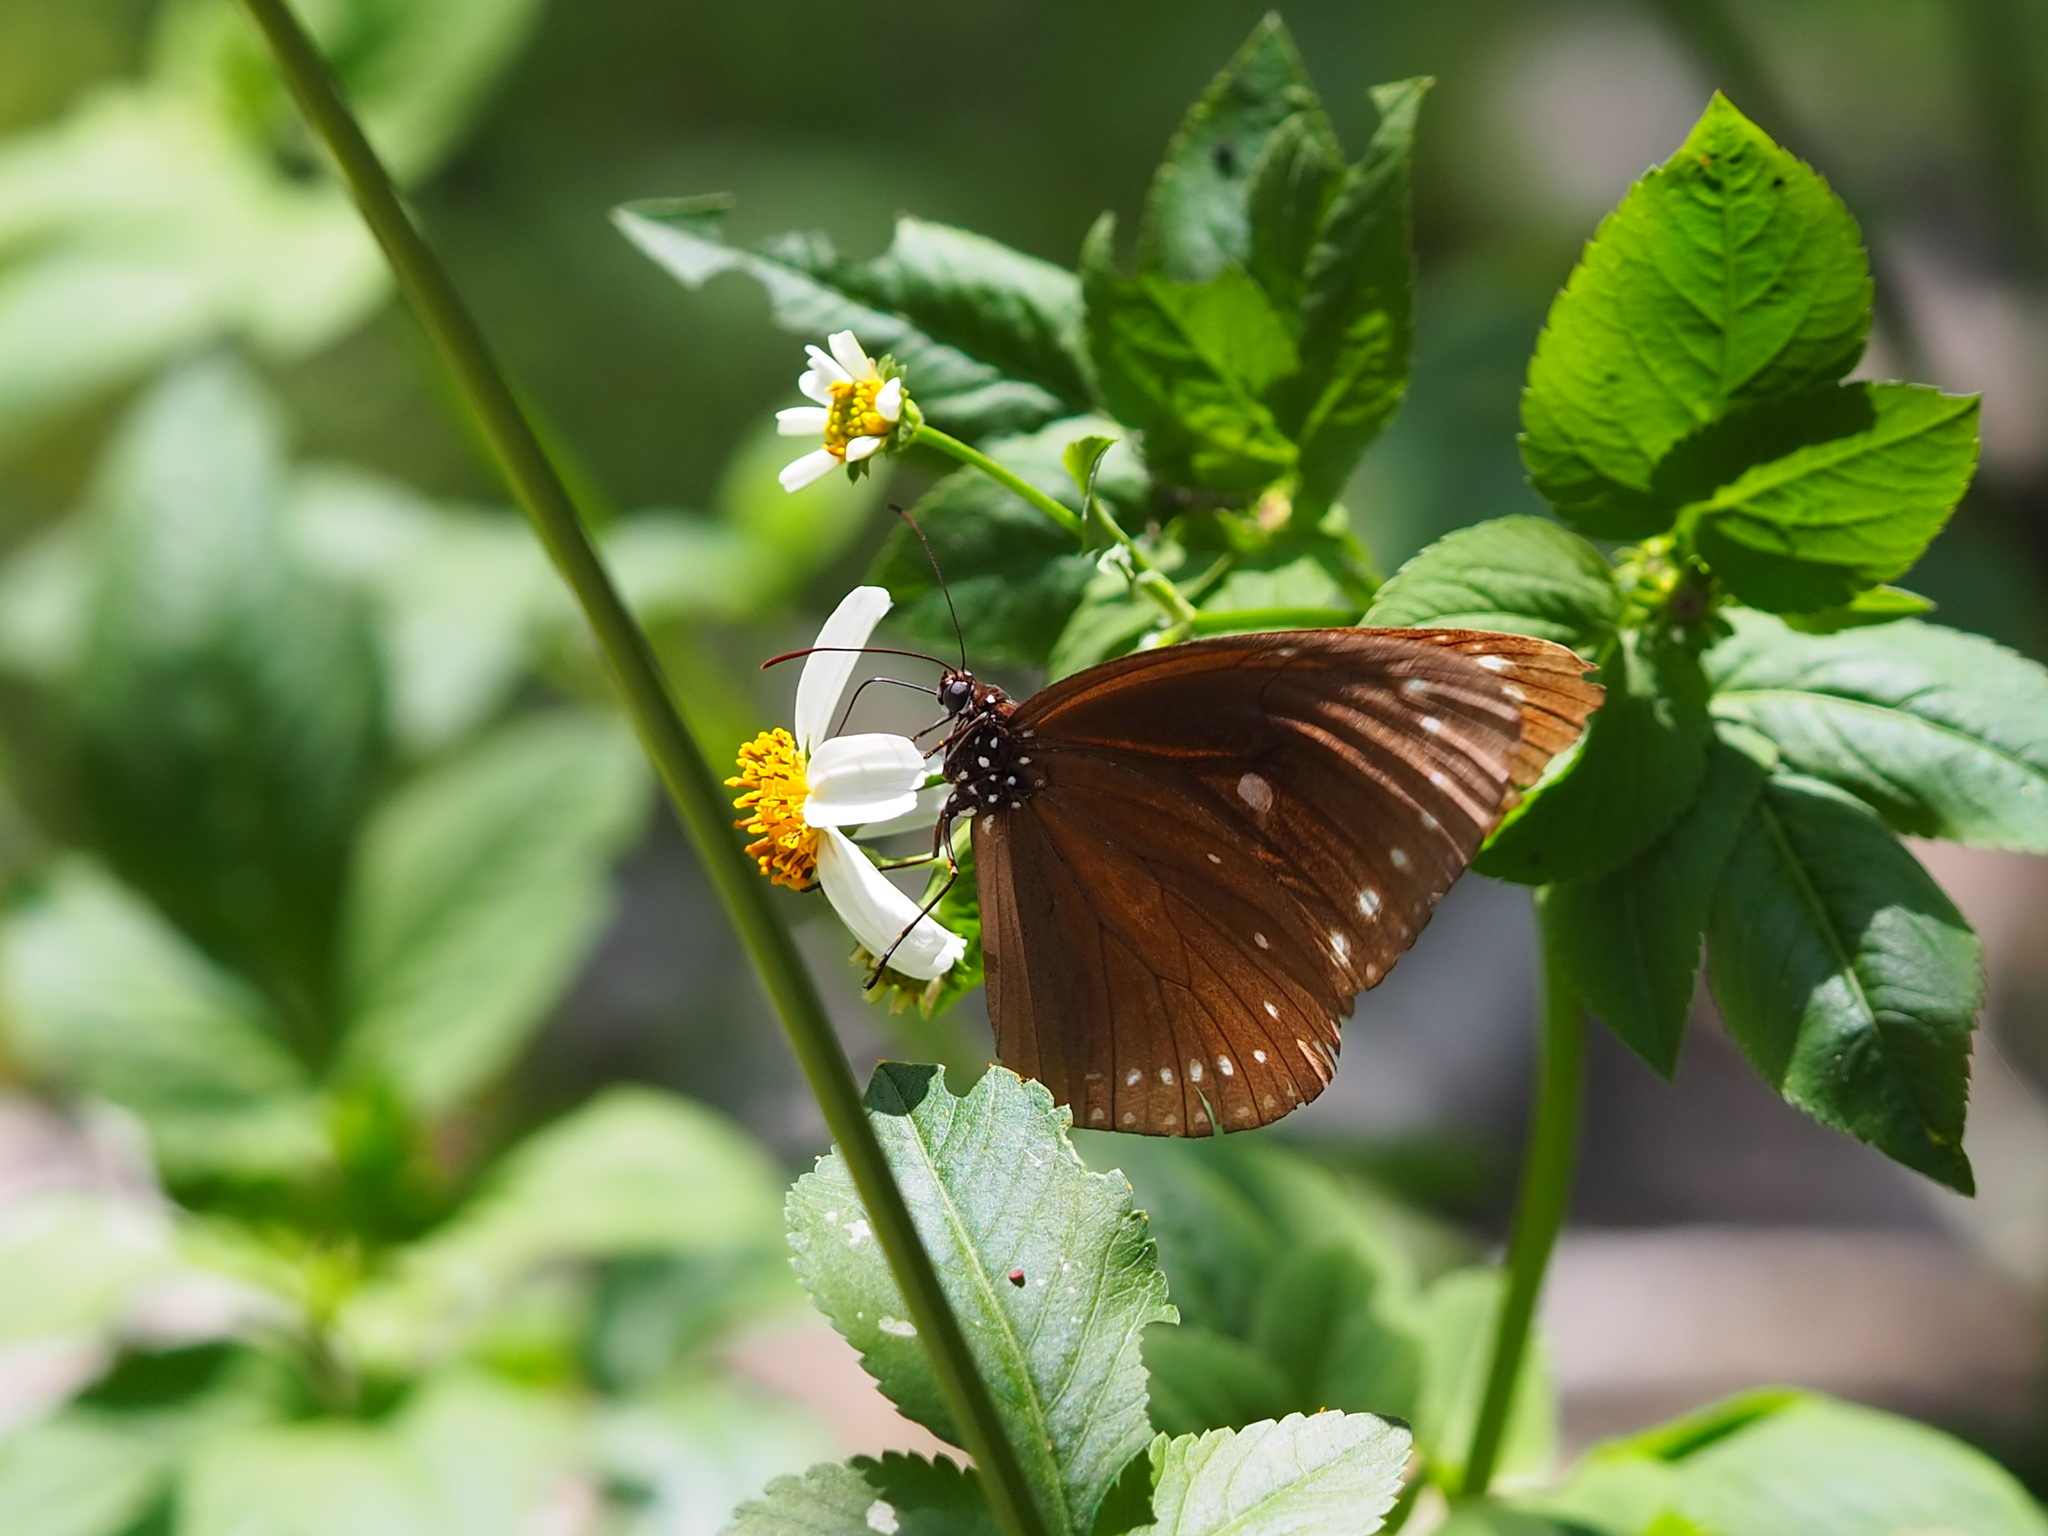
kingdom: Animalia
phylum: Arthropoda
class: Insecta
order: Lepidoptera
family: Nymphalidae
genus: Euploea
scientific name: Euploea tulliolus
